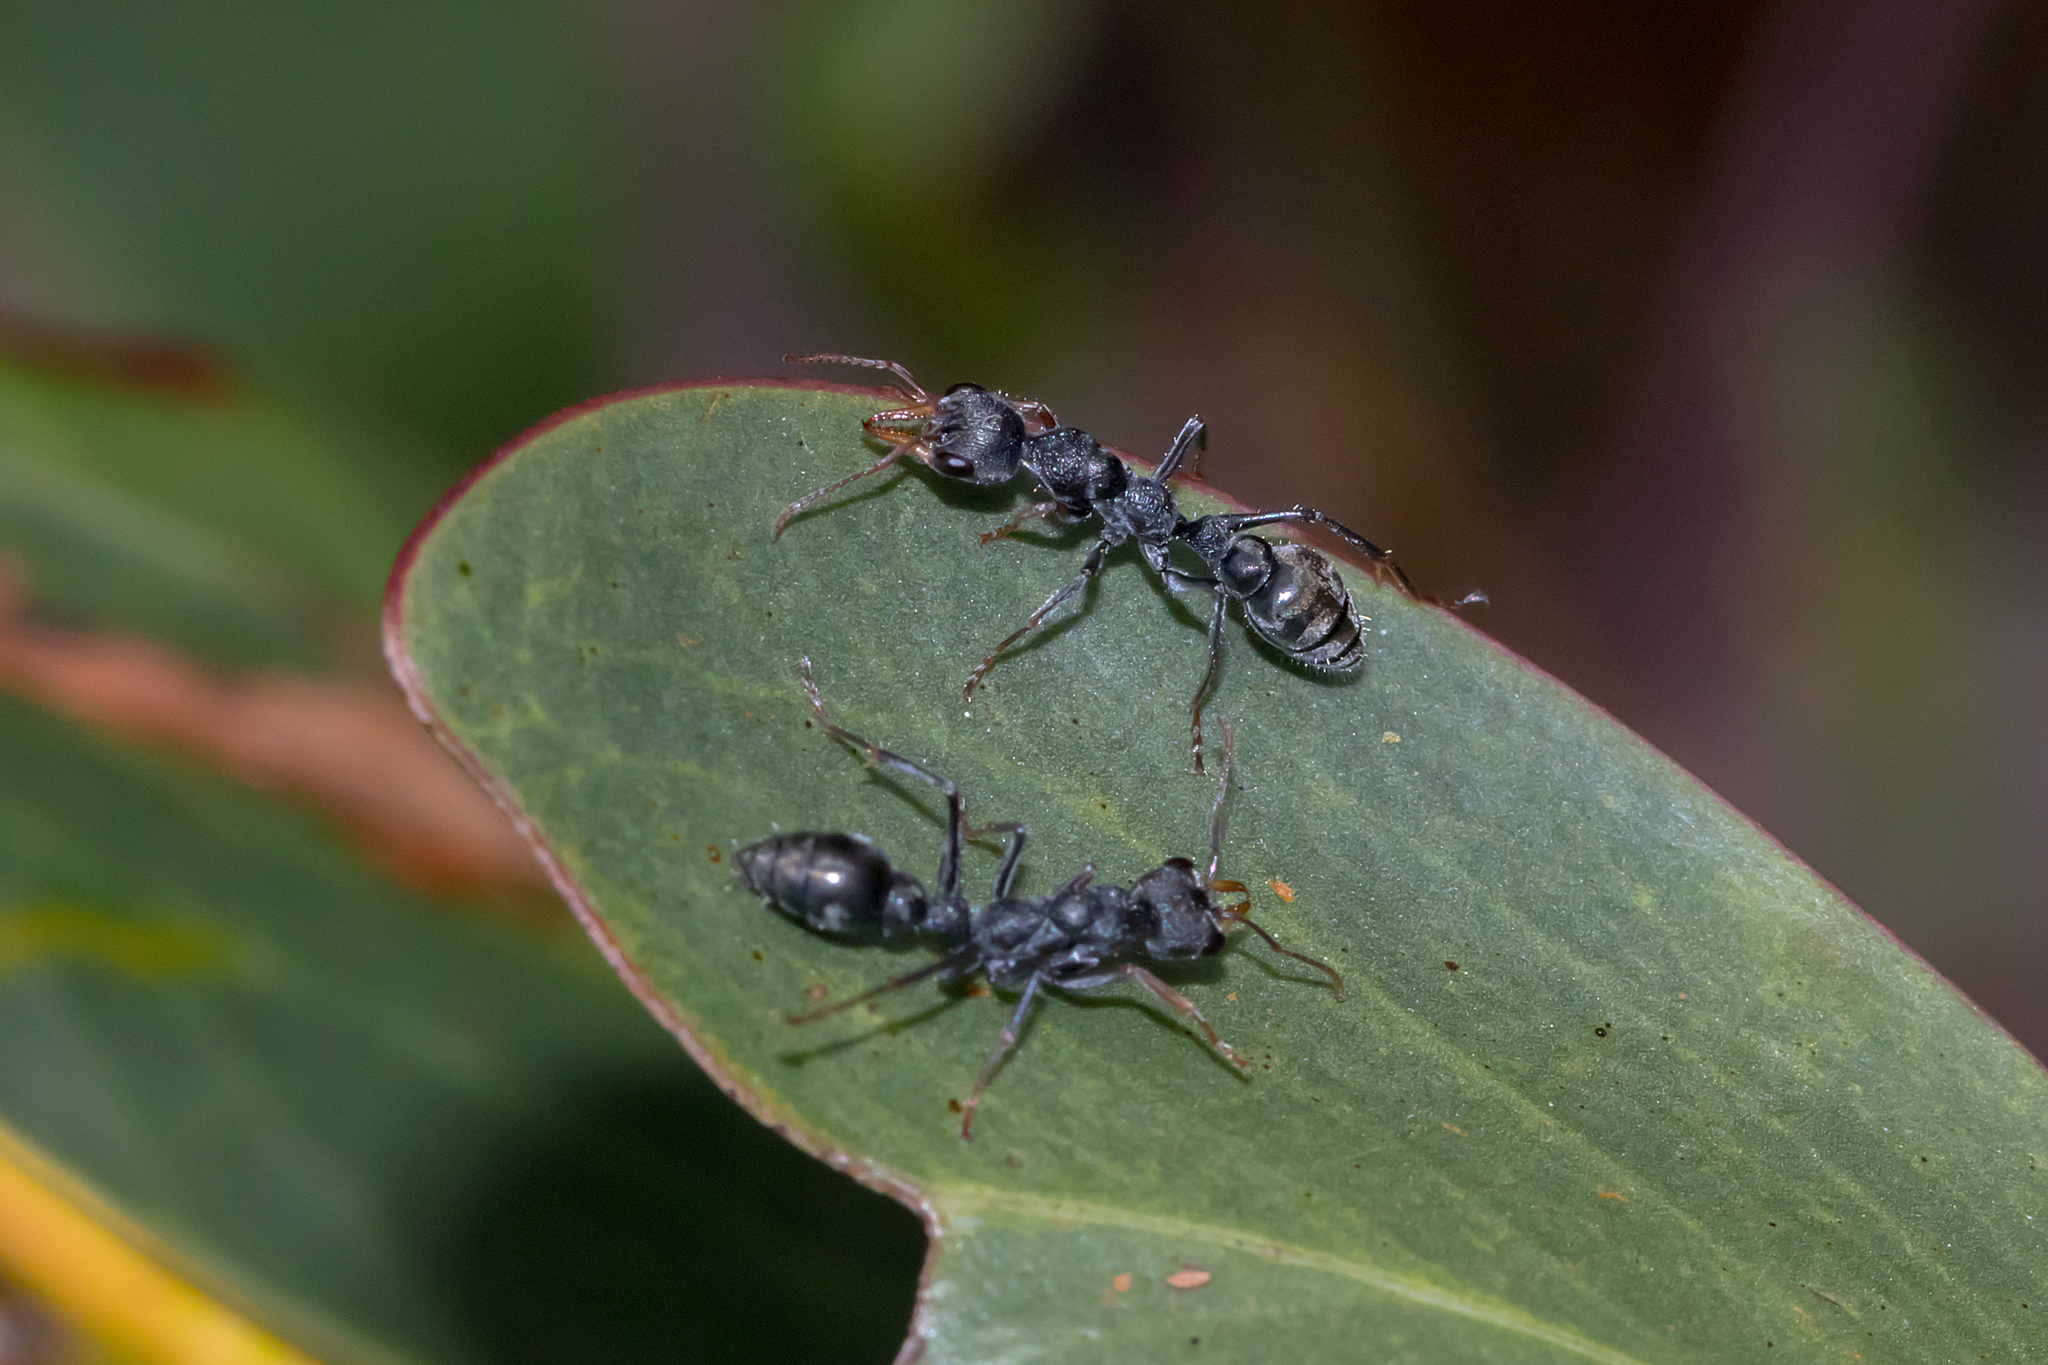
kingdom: Animalia
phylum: Arthropoda
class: Insecta
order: Hymenoptera
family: Formicidae
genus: Myrmecia
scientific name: Myrmecia urens
